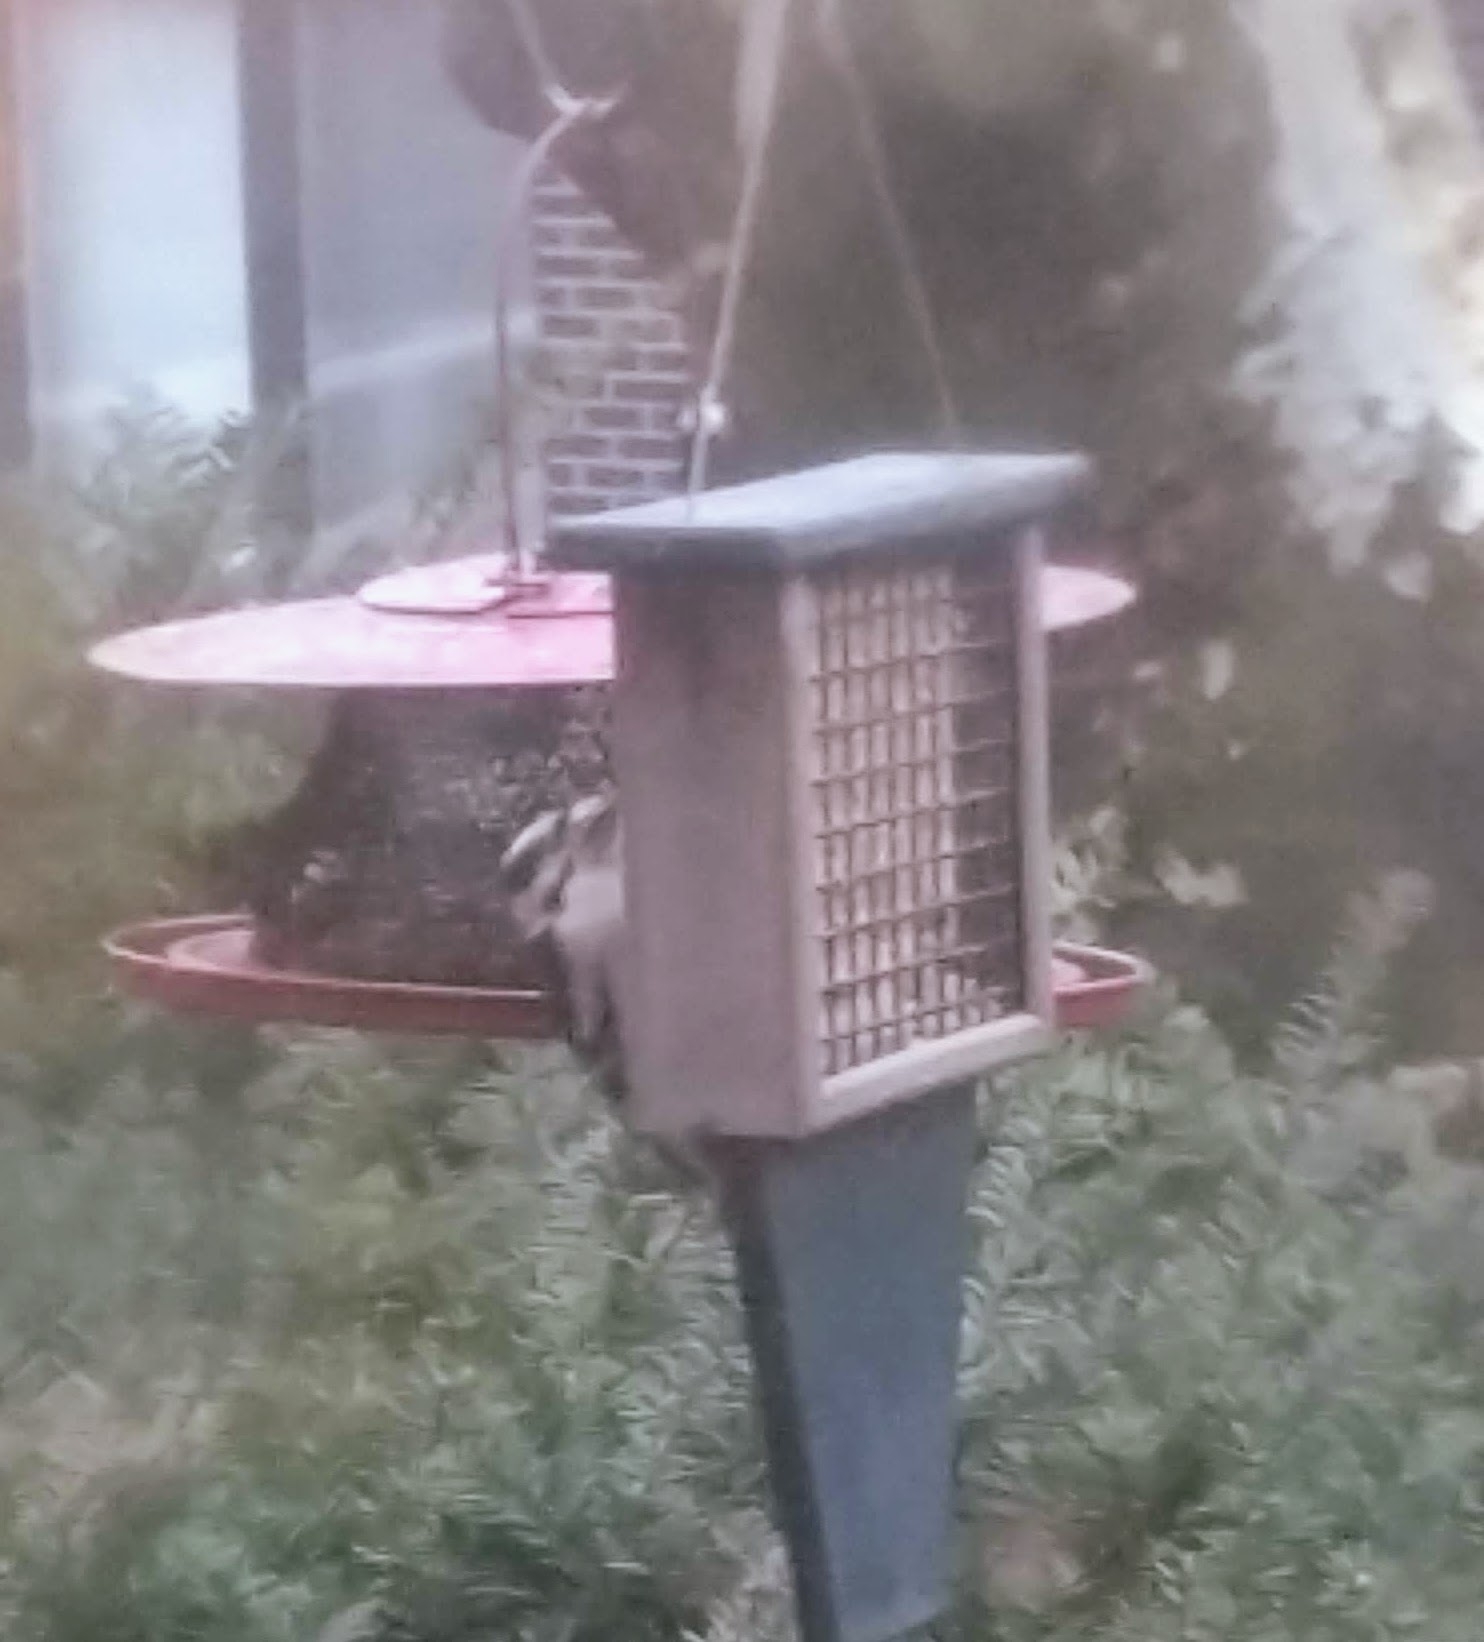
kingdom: Animalia
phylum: Chordata
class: Aves
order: Piciformes
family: Picidae
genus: Dryobates
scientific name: Dryobates pubescens
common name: Downy woodpecker
